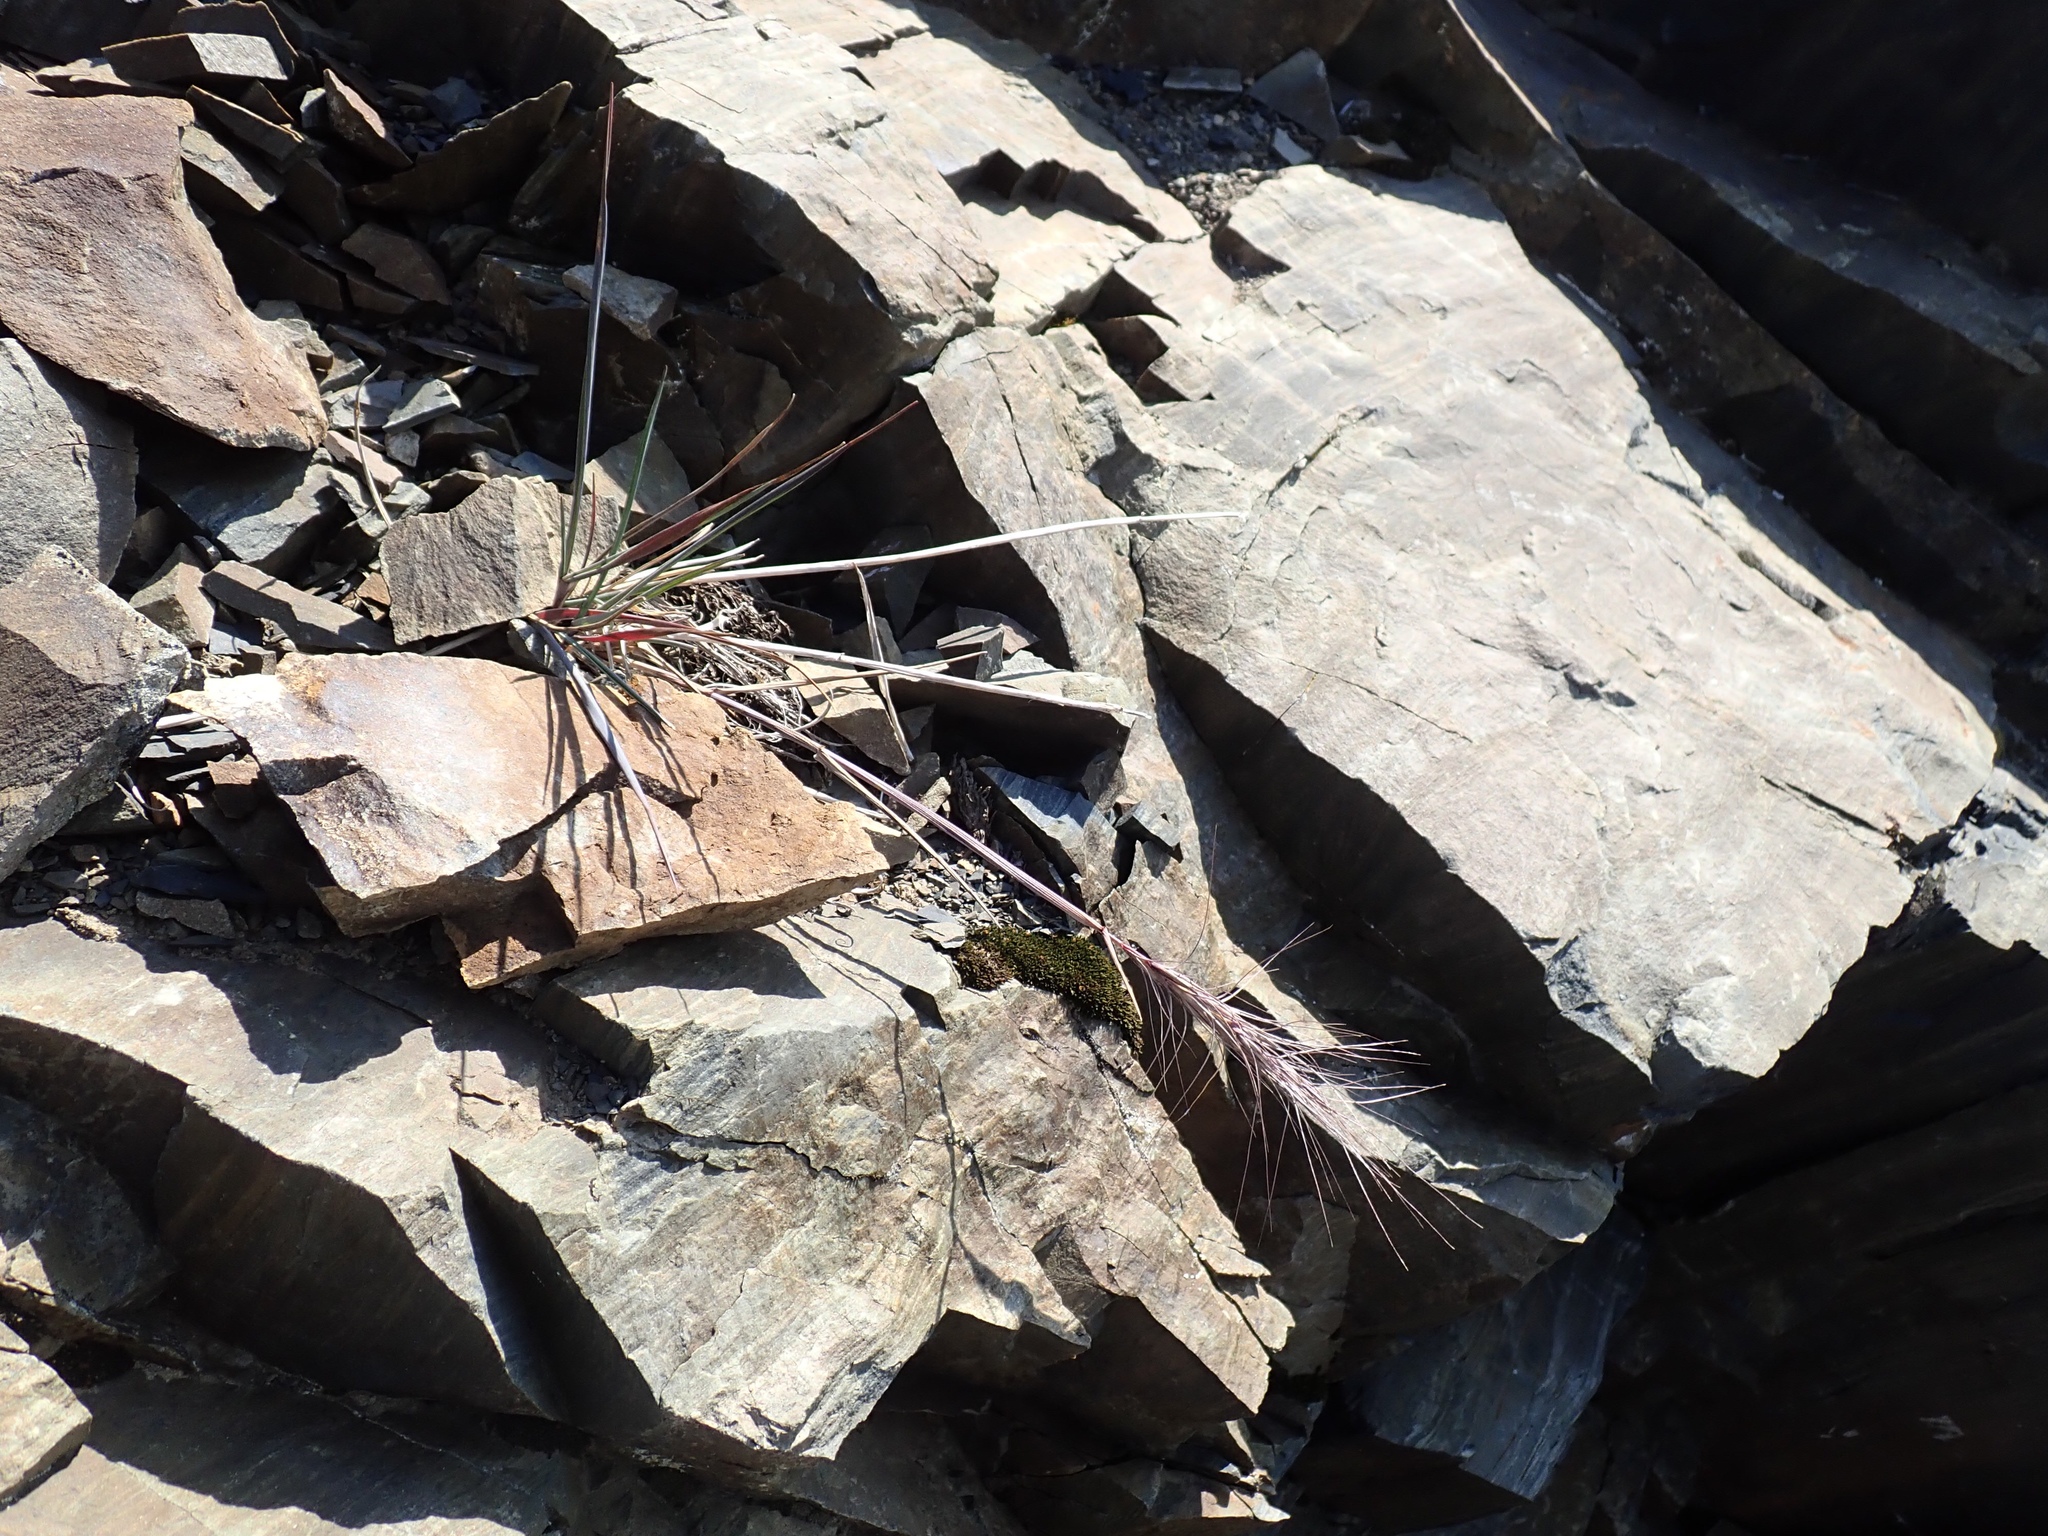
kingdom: Plantae
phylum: Tracheophyta
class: Liliopsida
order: Poales
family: Poaceae
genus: Elymus
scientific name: Elymus elymoides
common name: Bottlebrush squirreltail
